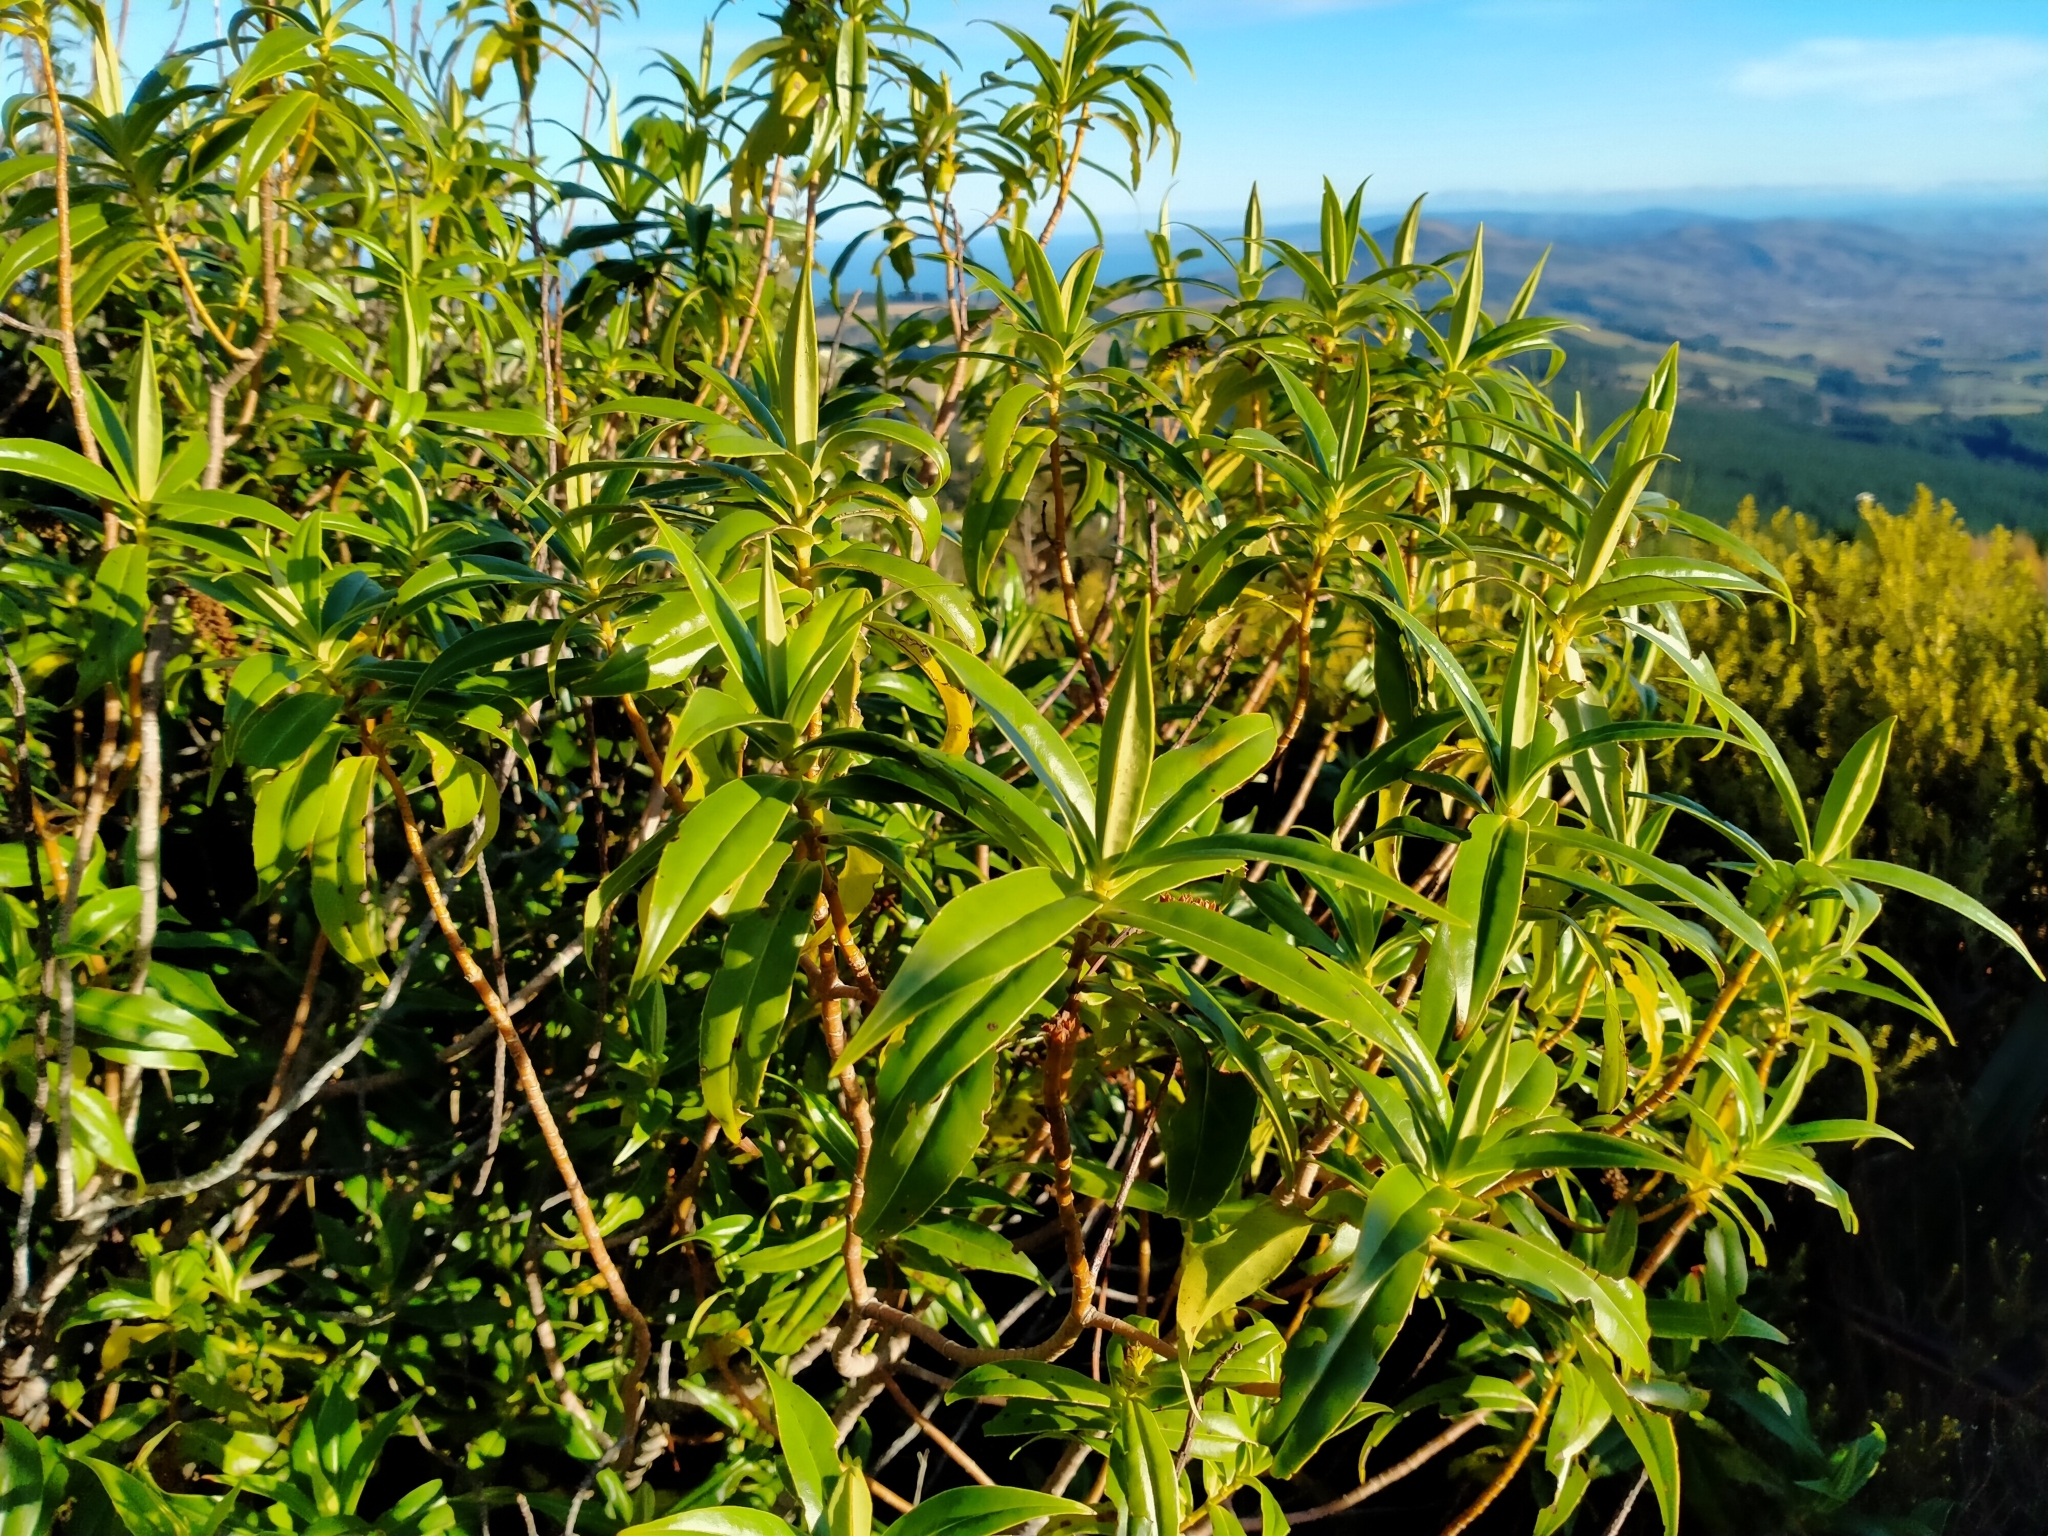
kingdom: Plantae
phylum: Tracheophyta
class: Magnoliopsida
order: Lamiales
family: Plantaginaceae
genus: Veronica
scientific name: Veronica salicifolia
